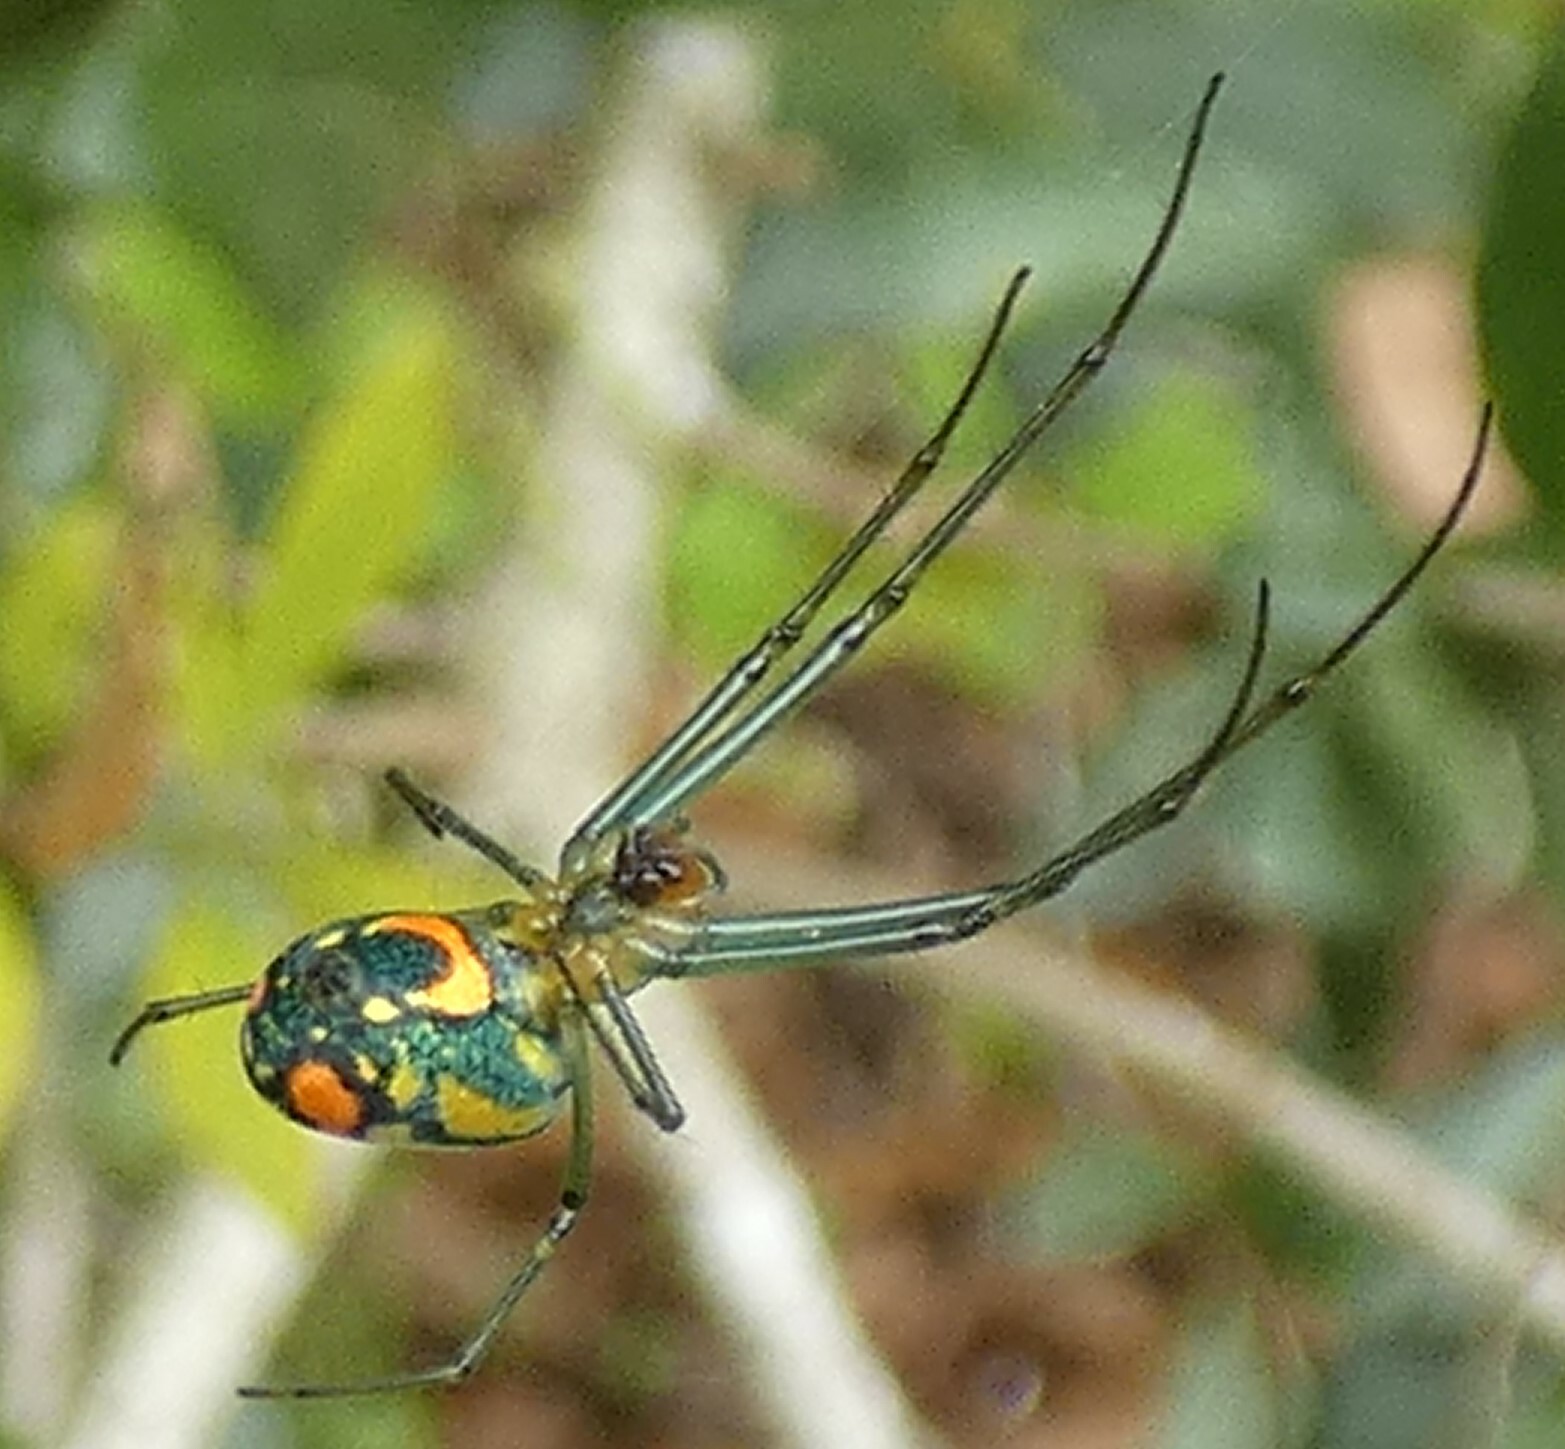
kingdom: Animalia
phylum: Arthropoda
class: Arachnida
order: Araneae
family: Tetragnathidae
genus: Leucauge
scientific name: Leucauge argyrobapta
